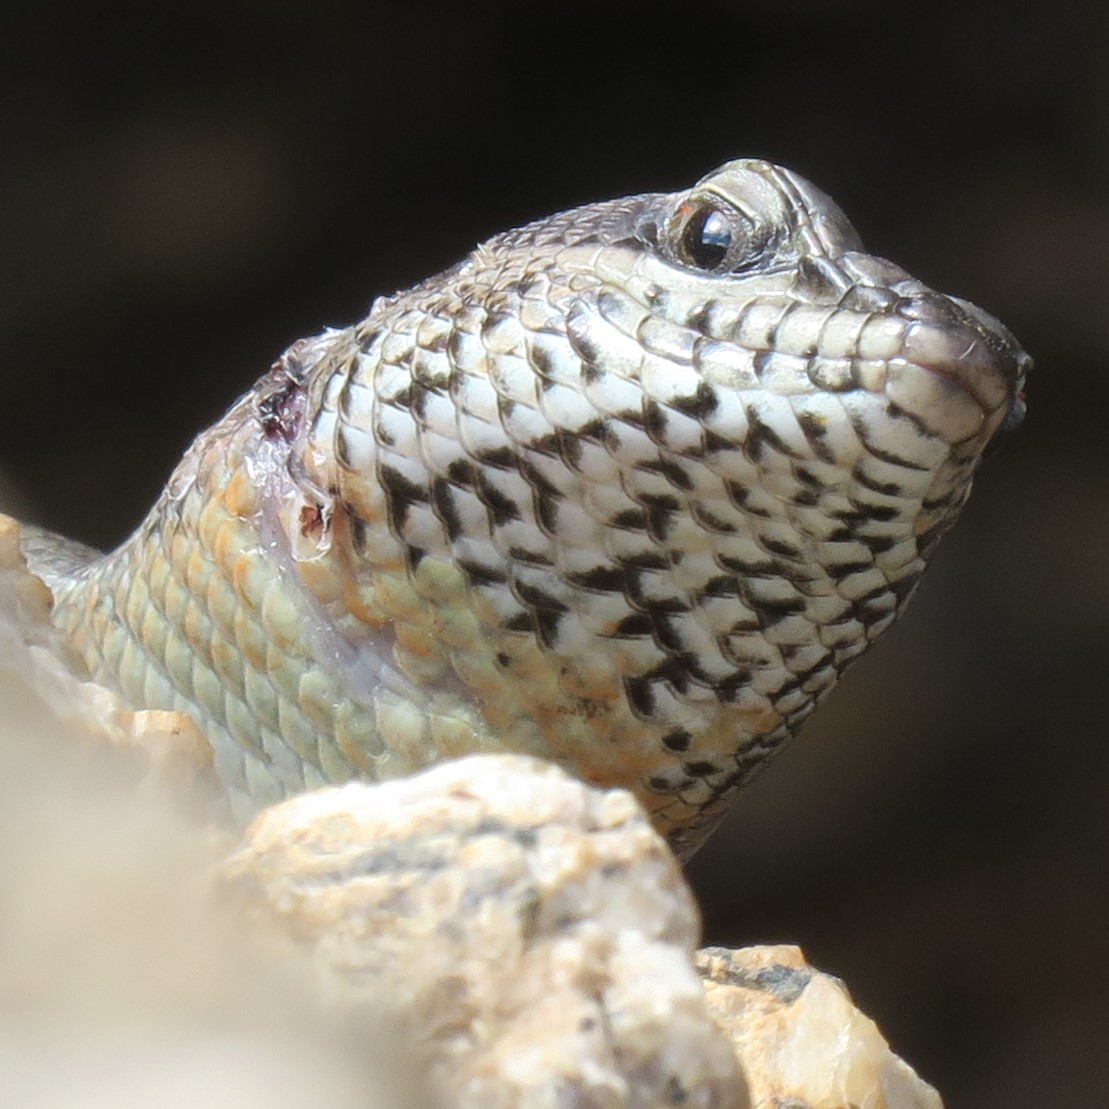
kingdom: Animalia
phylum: Chordata
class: Squamata
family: Scincidae
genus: Trachylepis
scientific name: Trachylepis sulcata
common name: Western rock skink
